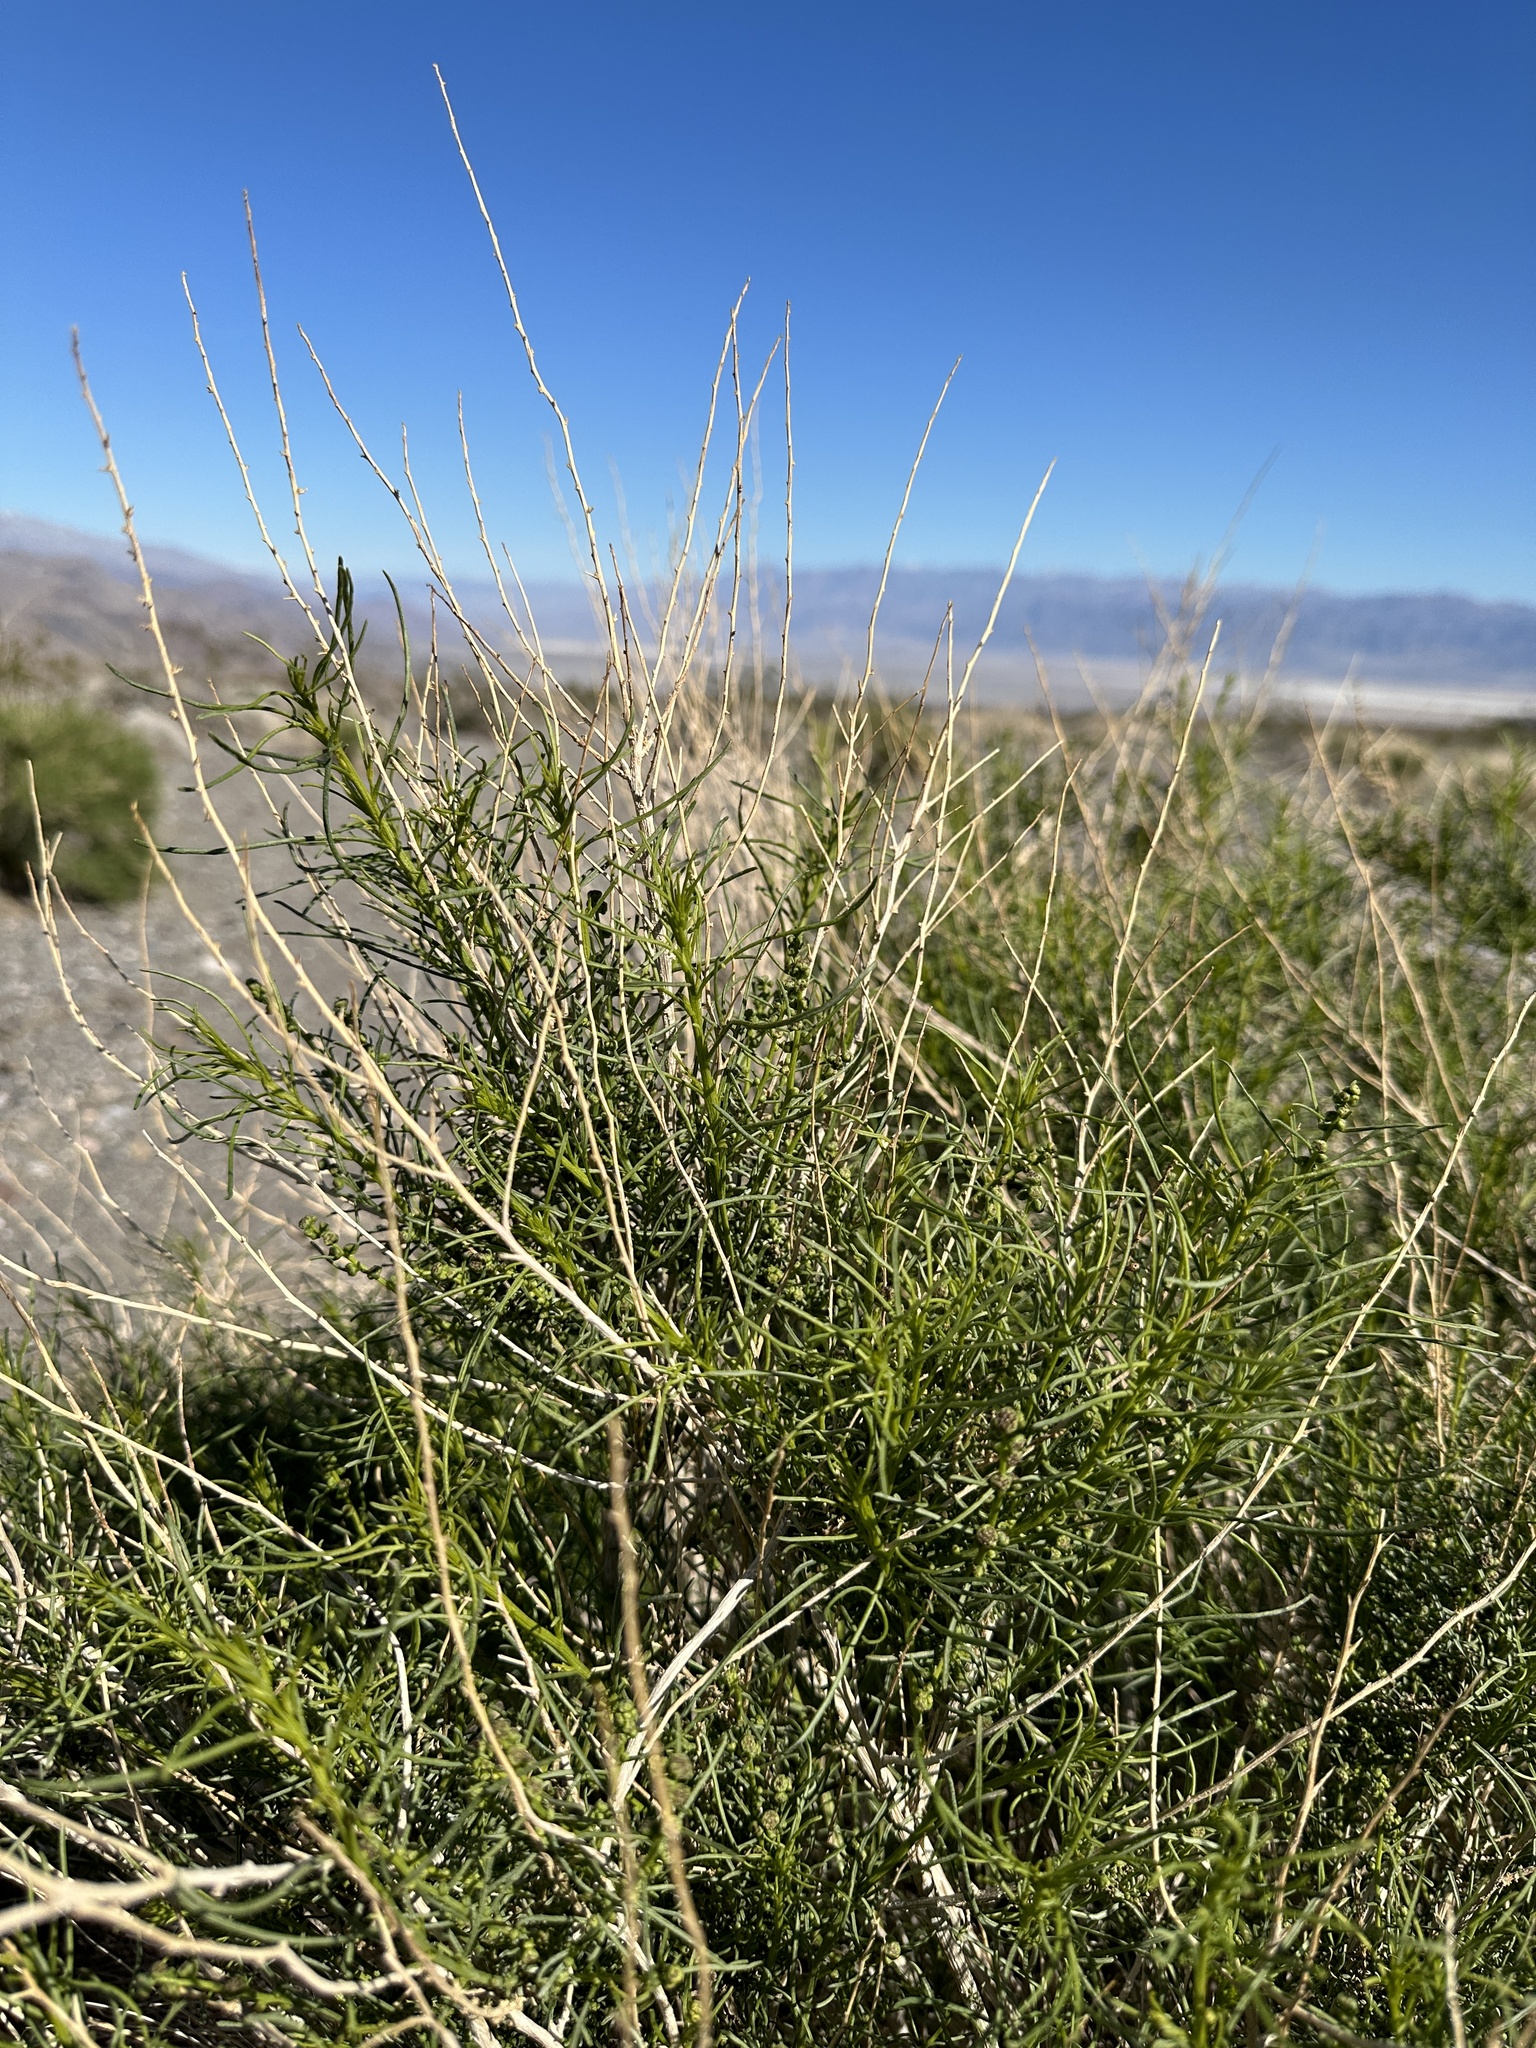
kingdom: Plantae
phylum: Tracheophyta
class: Magnoliopsida
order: Asterales
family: Asteraceae
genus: Ambrosia
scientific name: Ambrosia salsola
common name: Burrobrush
